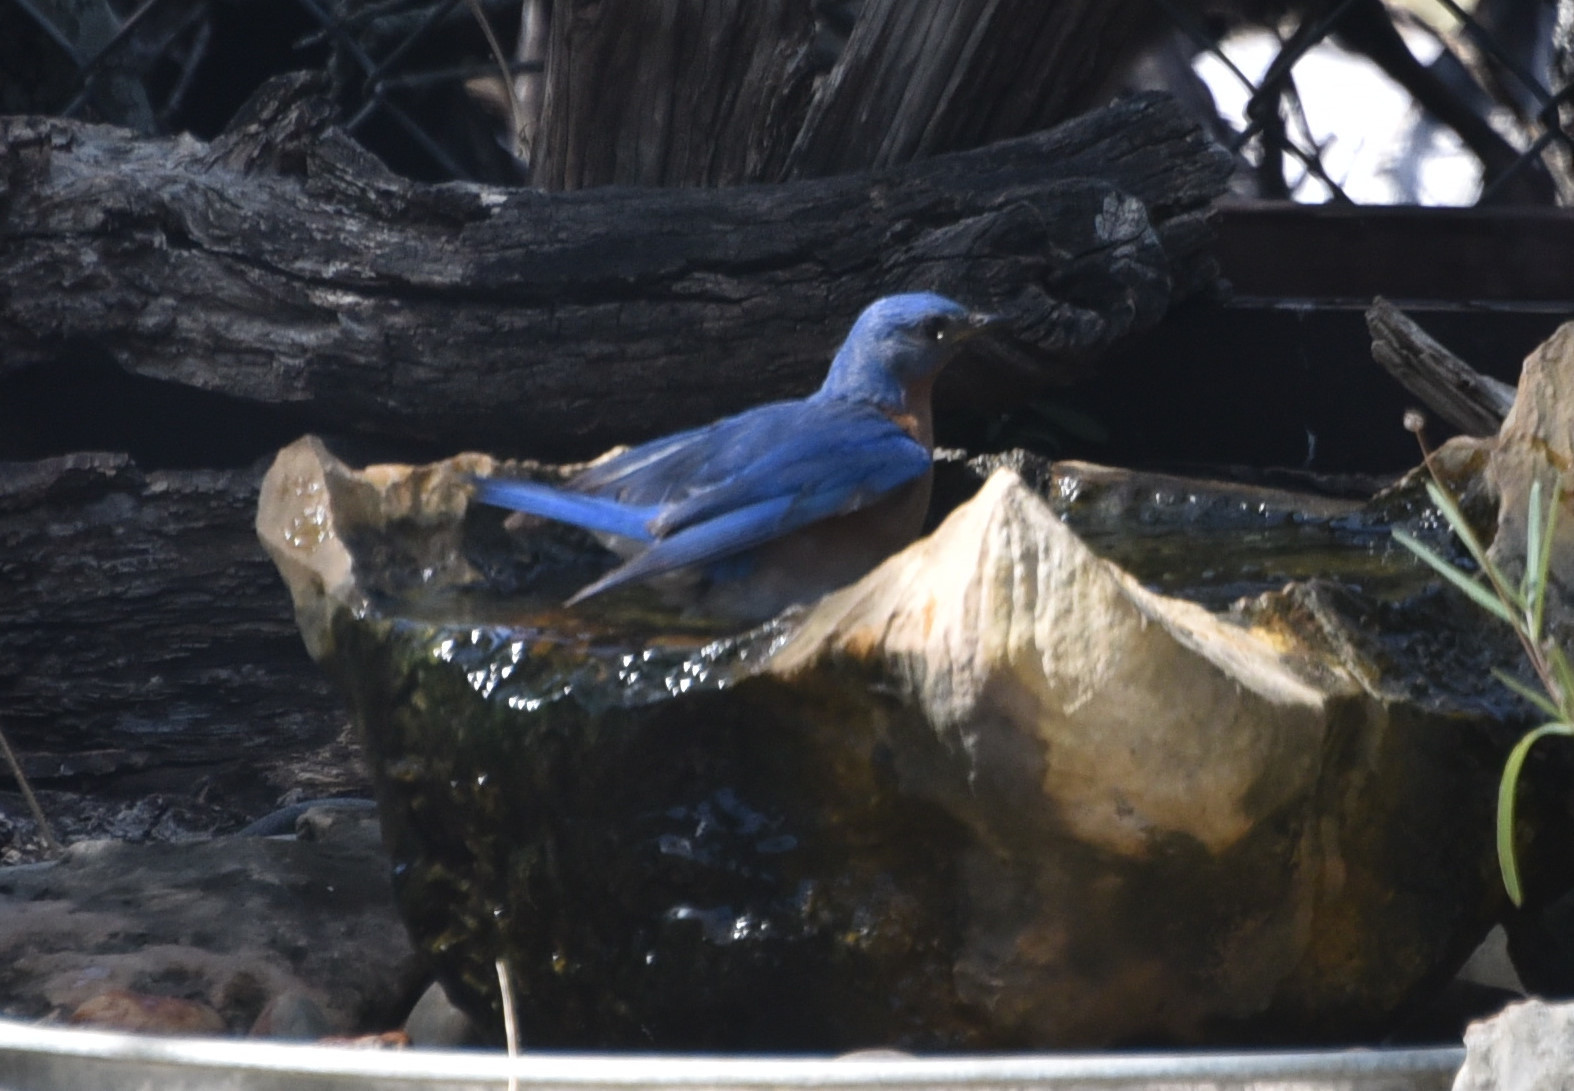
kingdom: Animalia
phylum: Chordata
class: Aves
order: Passeriformes
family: Turdidae
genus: Sialia
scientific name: Sialia sialis
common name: Eastern bluebird
